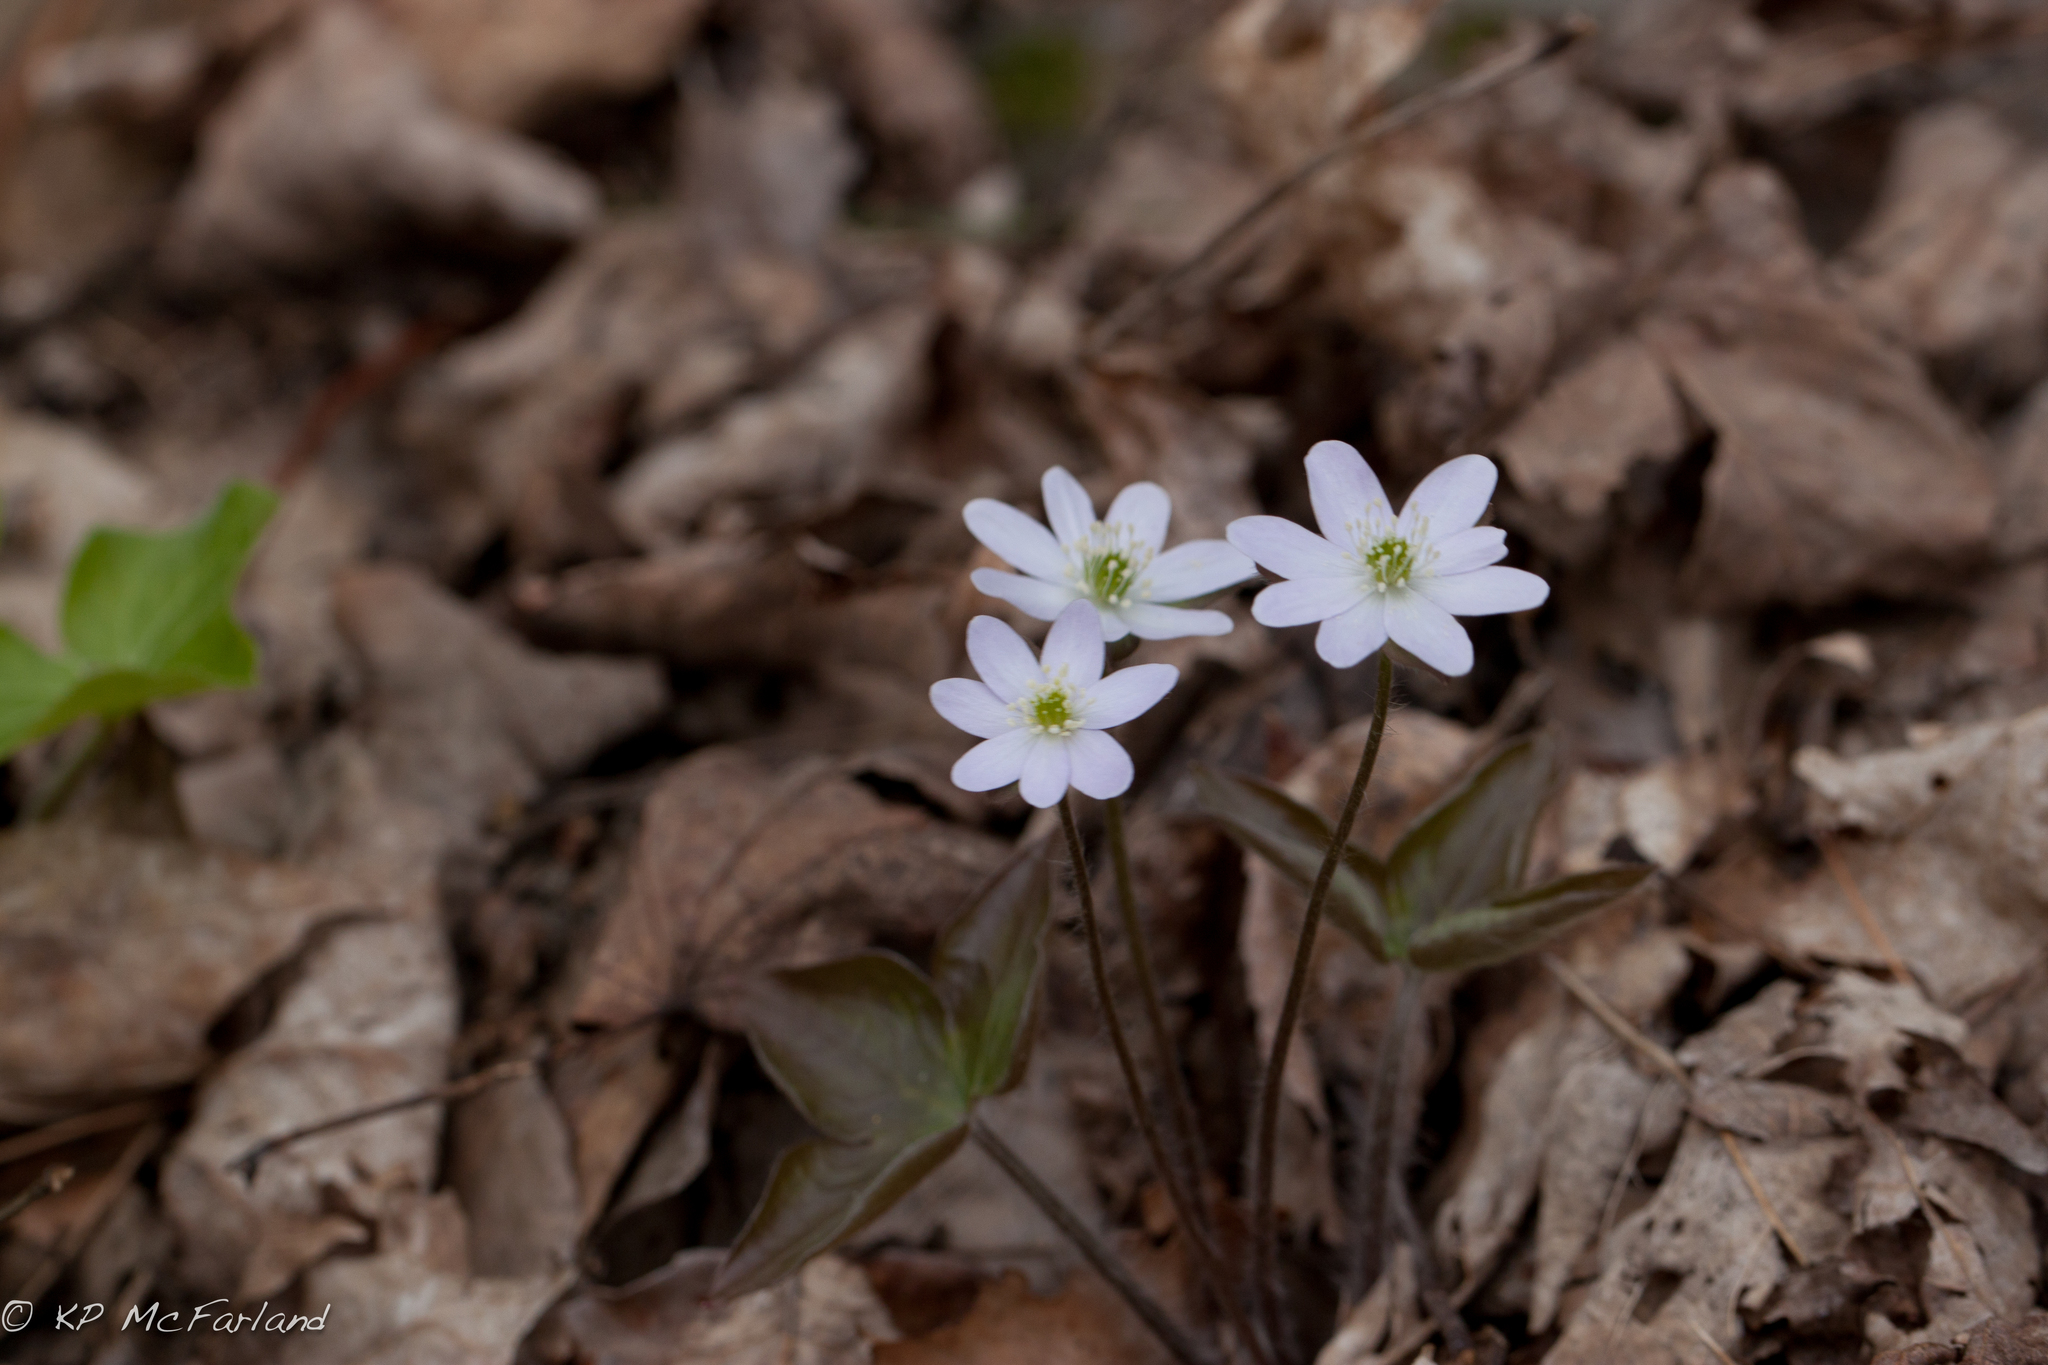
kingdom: Plantae
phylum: Tracheophyta
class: Magnoliopsida
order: Ranunculales
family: Ranunculaceae
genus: Hepatica
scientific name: Hepatica acutiloba
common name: Sharp-lobed hepatica
